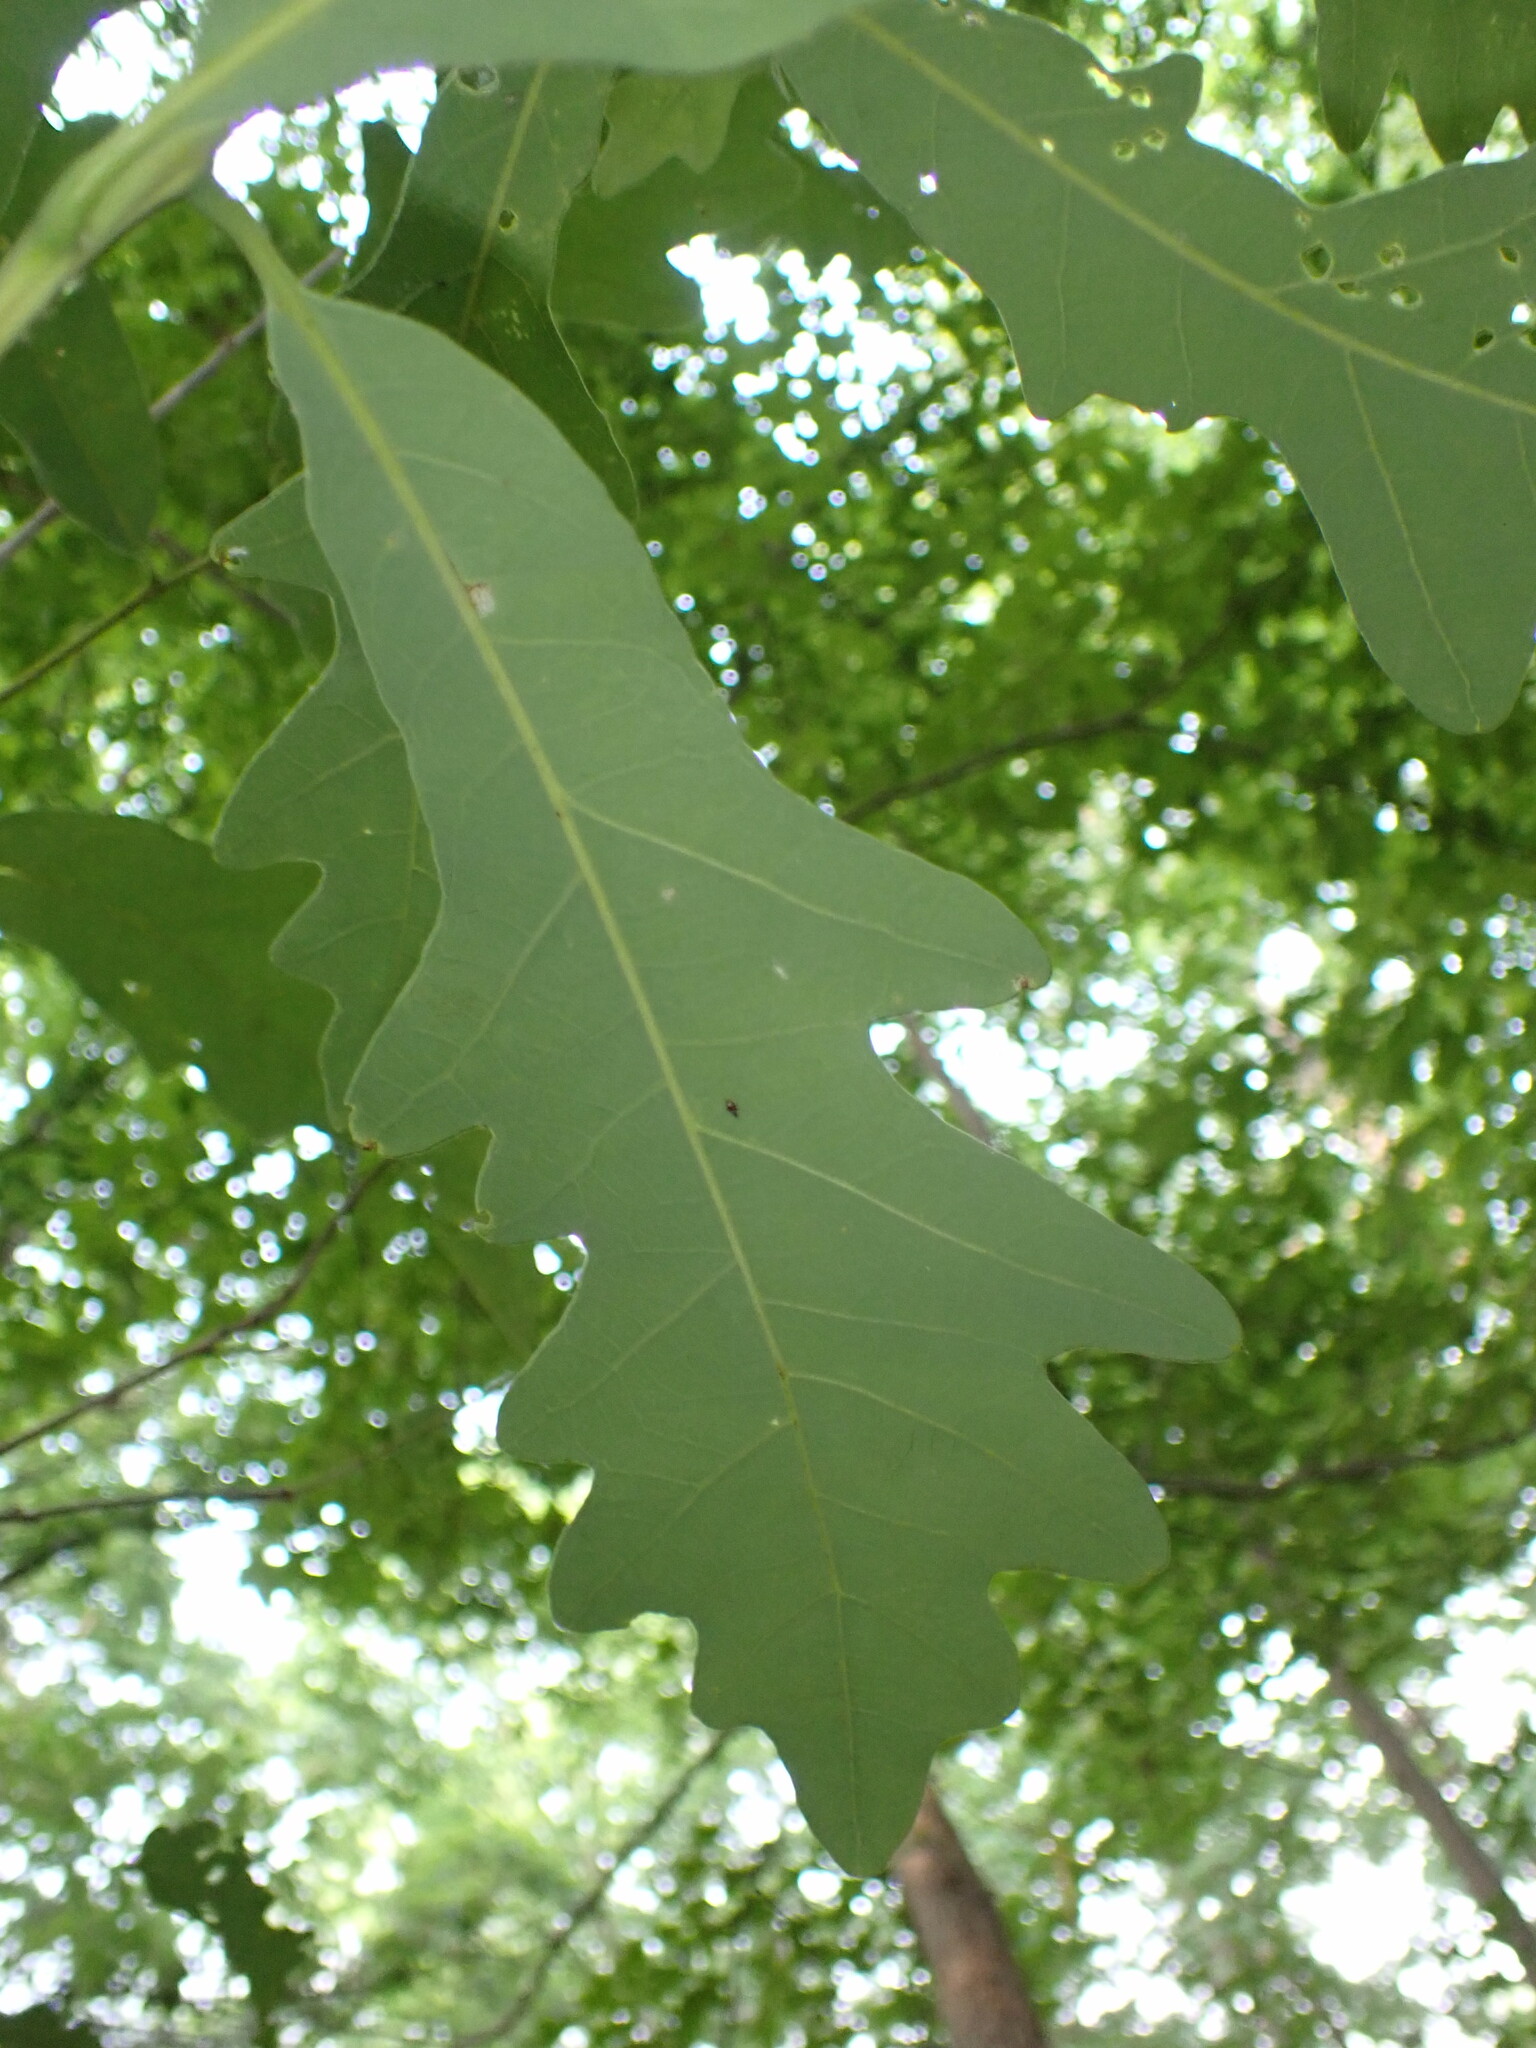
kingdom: Plantae
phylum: Tracheophyta
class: Magnoliopsida
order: Fagales
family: Fagaceae
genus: Quercus
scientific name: Quercus alba
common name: White oak
